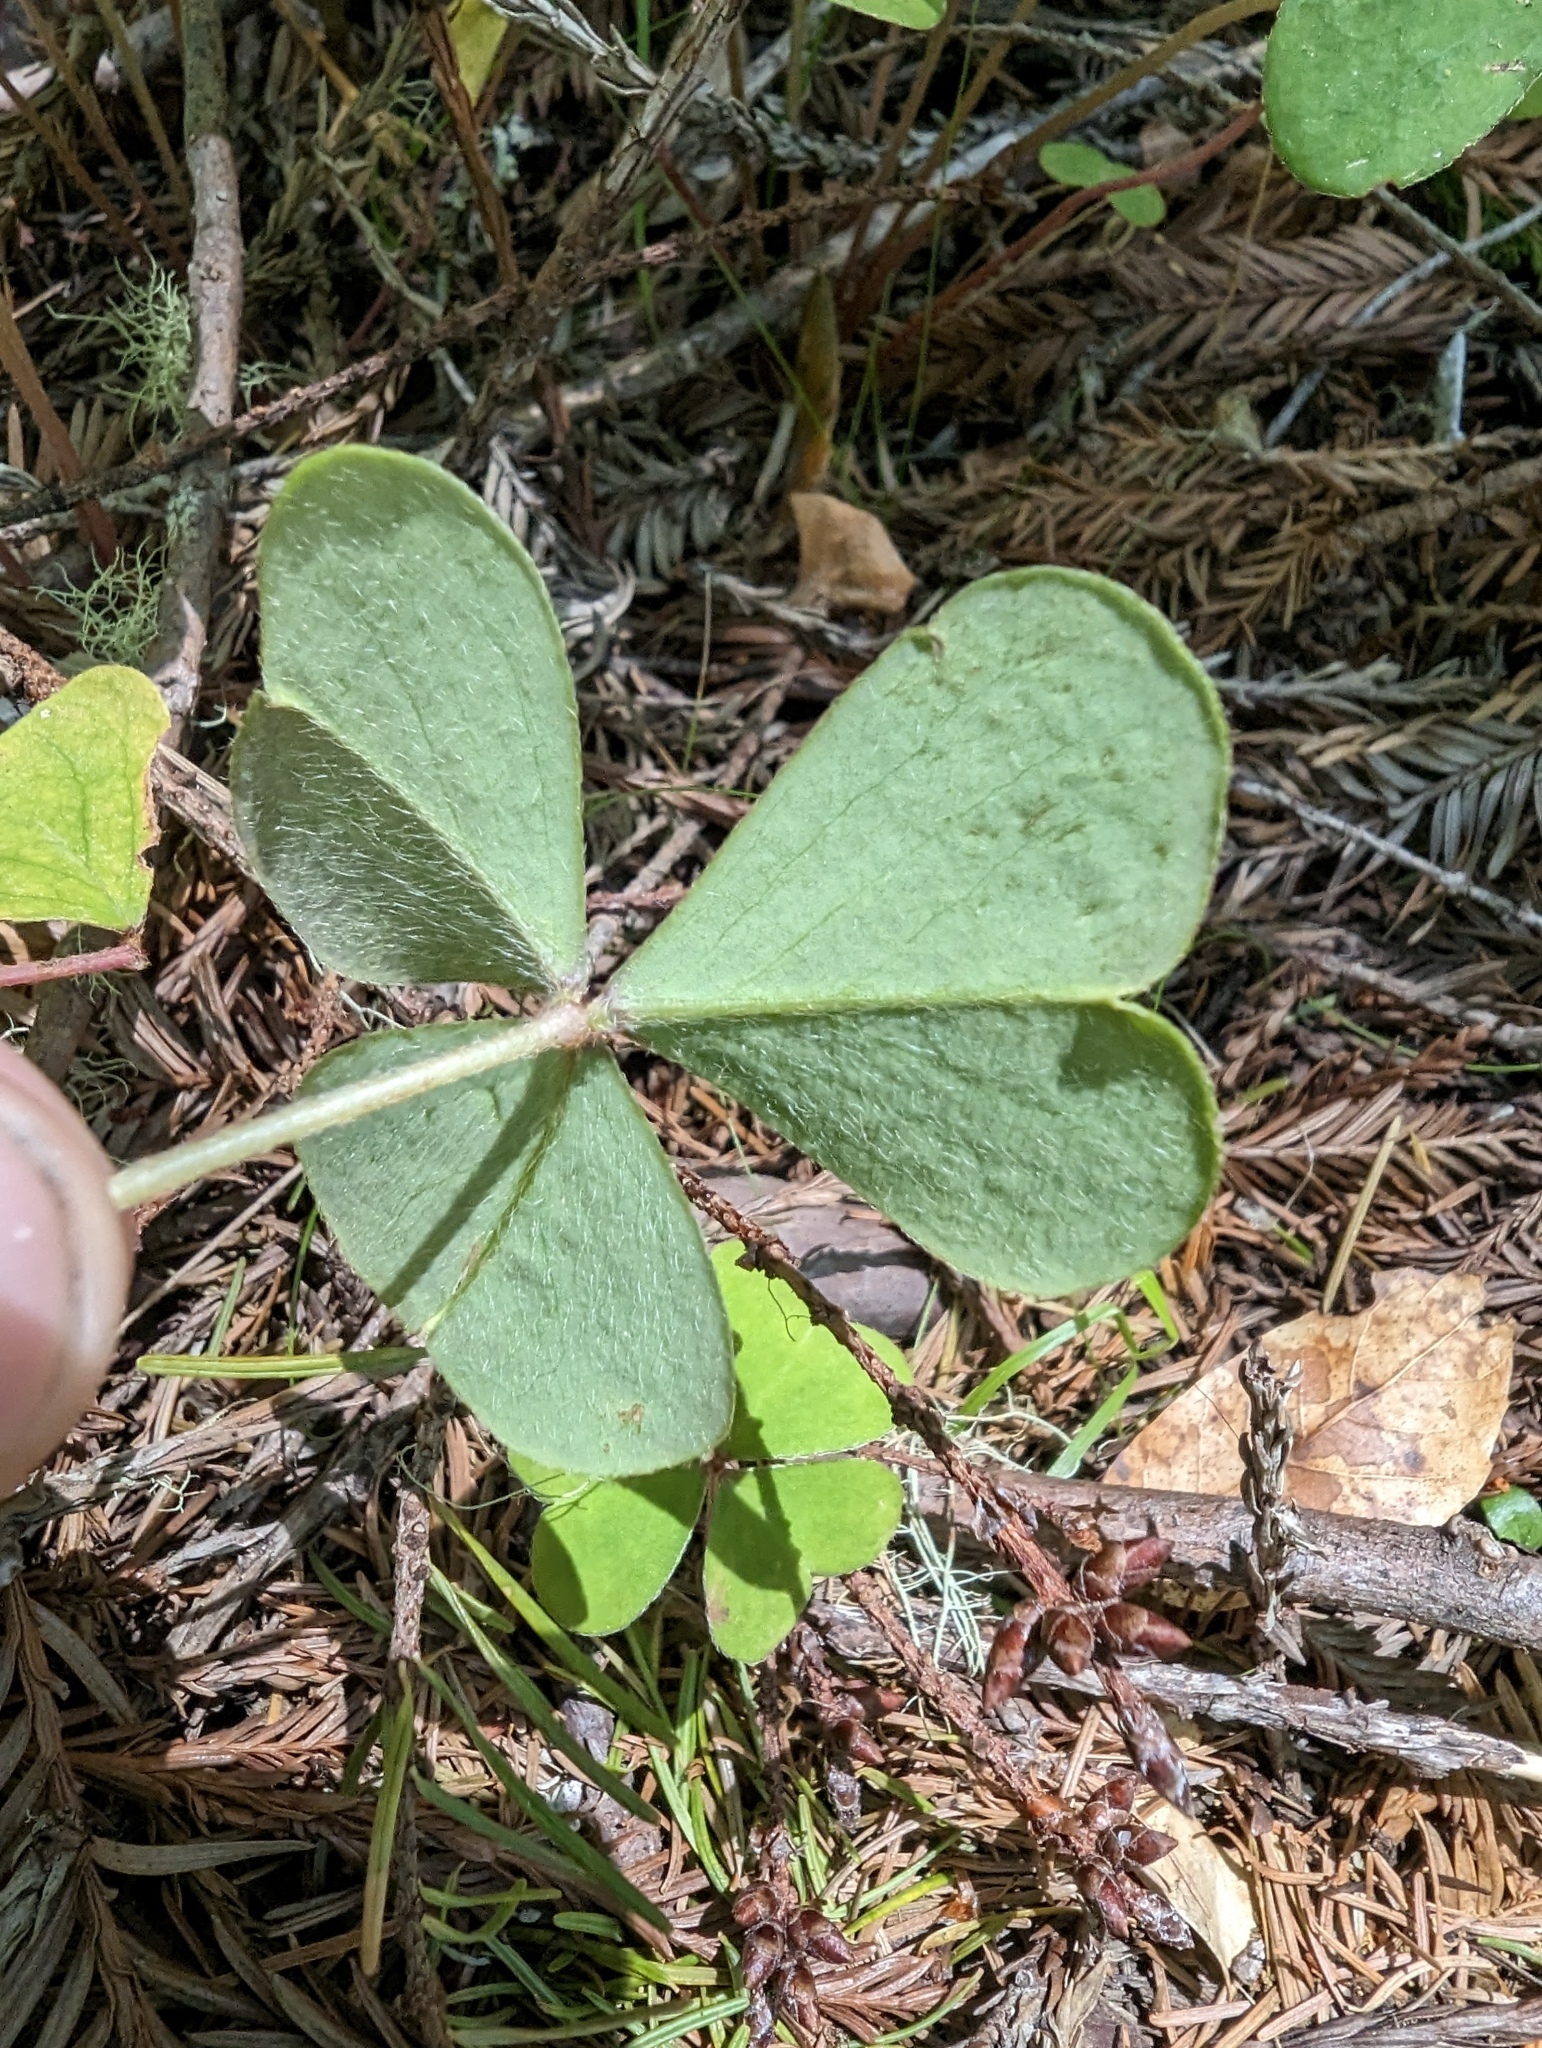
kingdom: Plantae
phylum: Tracheophyta
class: Magnoliopsida
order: Oxalidales
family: Oxalidaceae
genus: Oxalis
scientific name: Oxalis oregana
